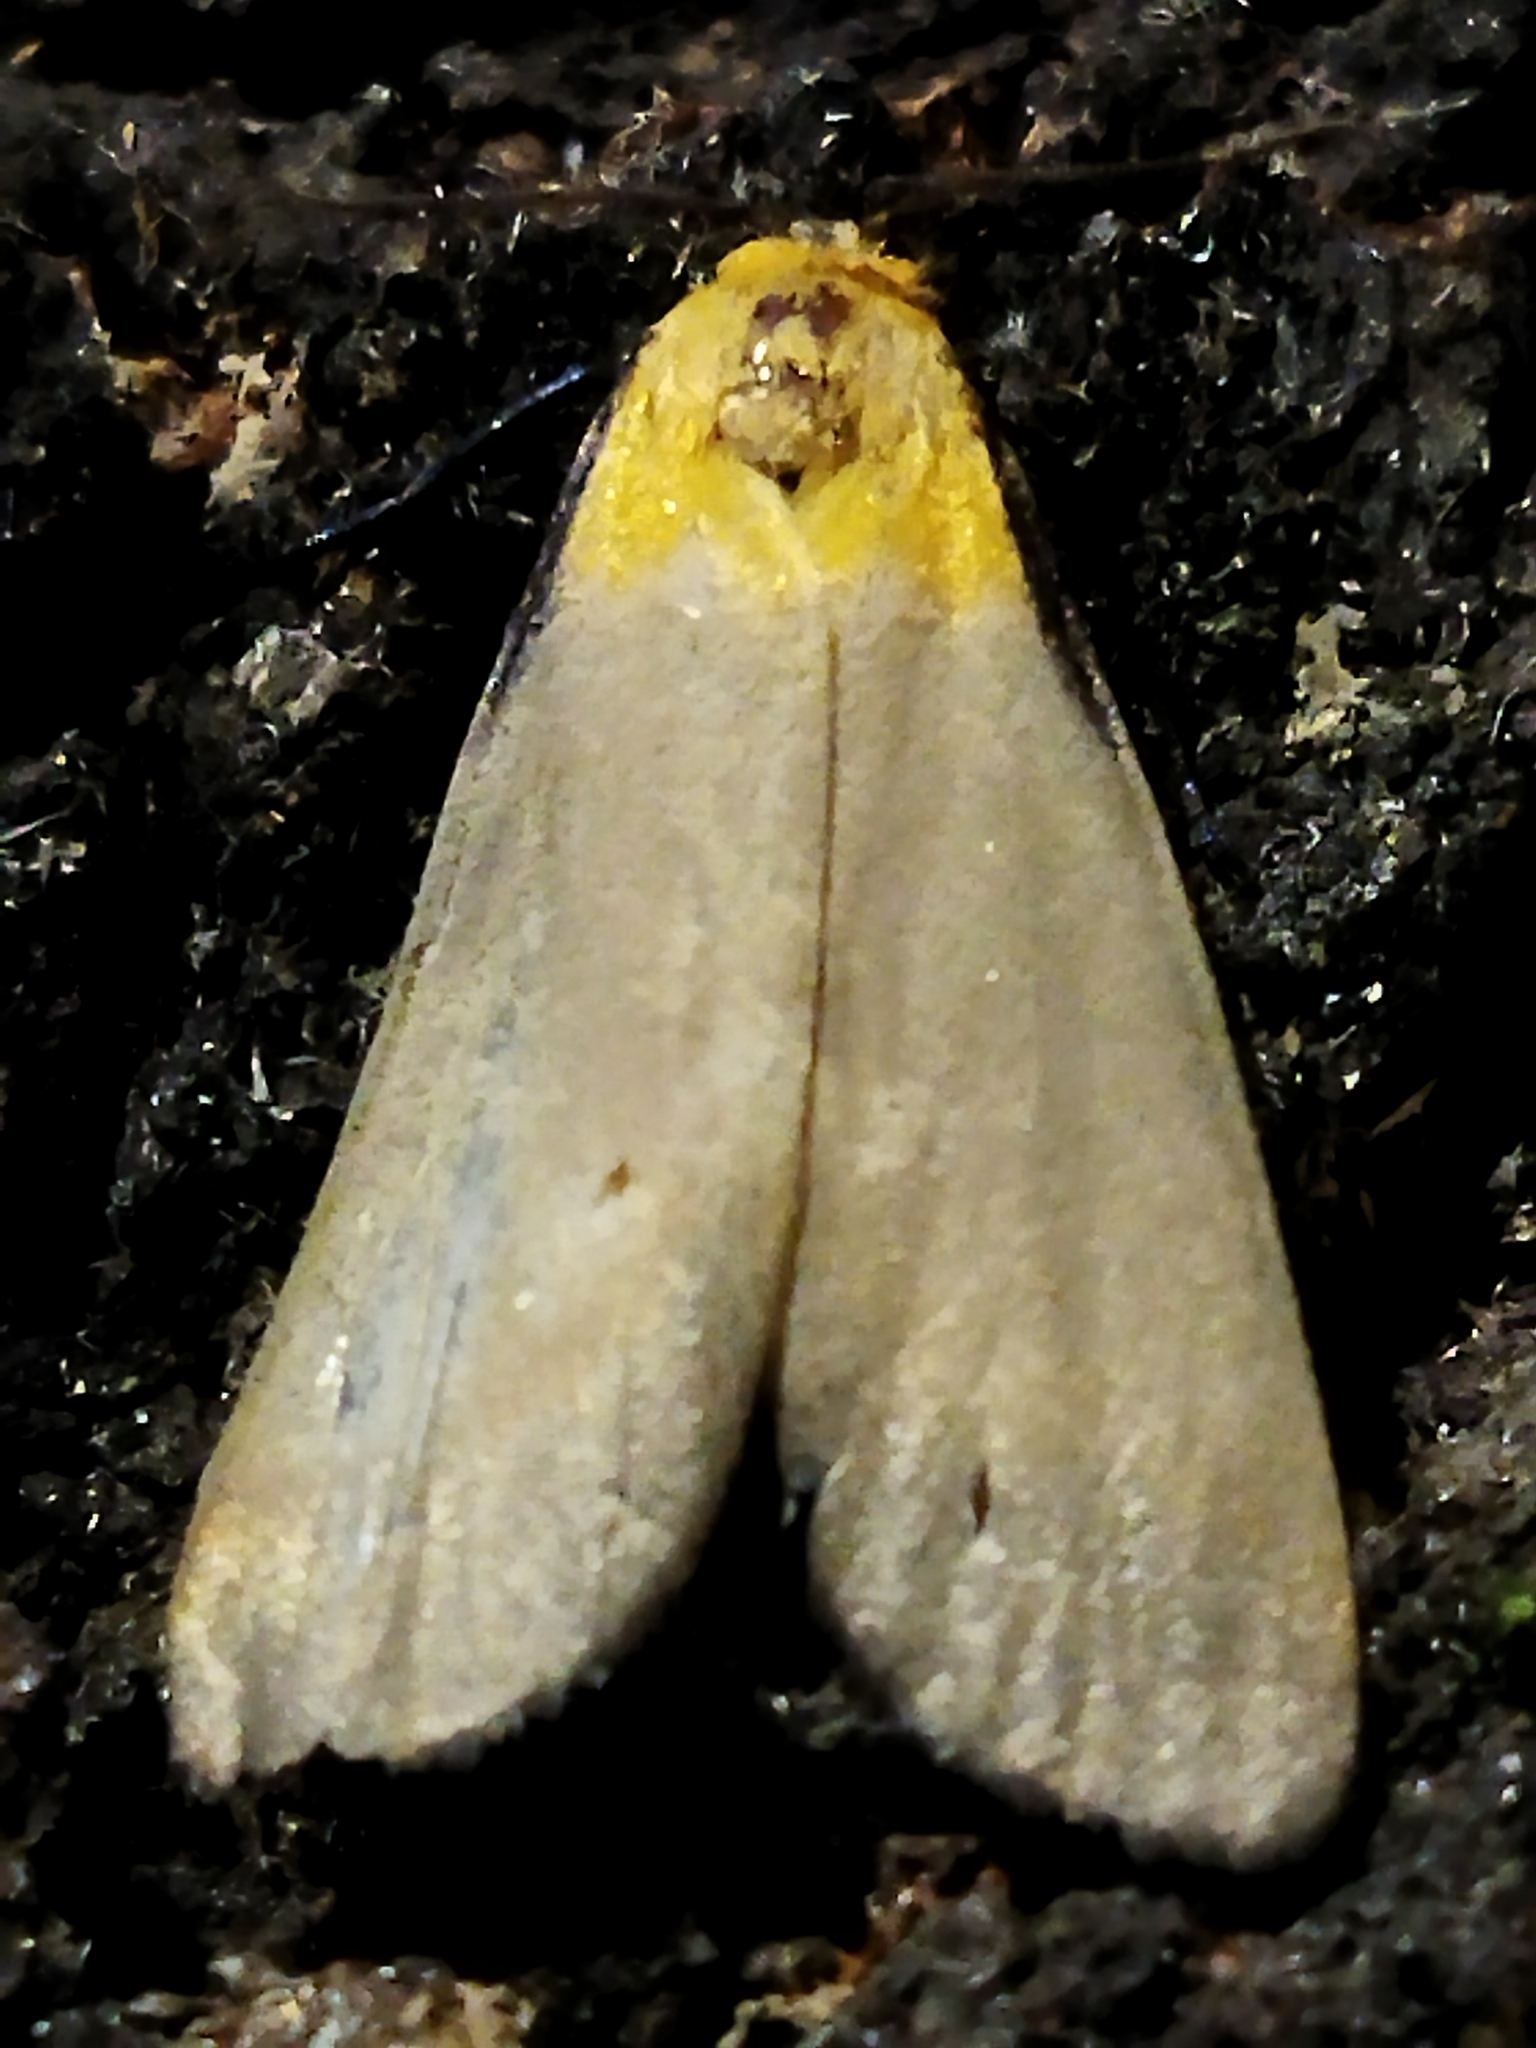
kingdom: Animalia
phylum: Arthropoda
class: Insecta
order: Lepidoptera
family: Erebidae
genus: Lithosia
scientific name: Lithosia quadra
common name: Four-spotted footman
